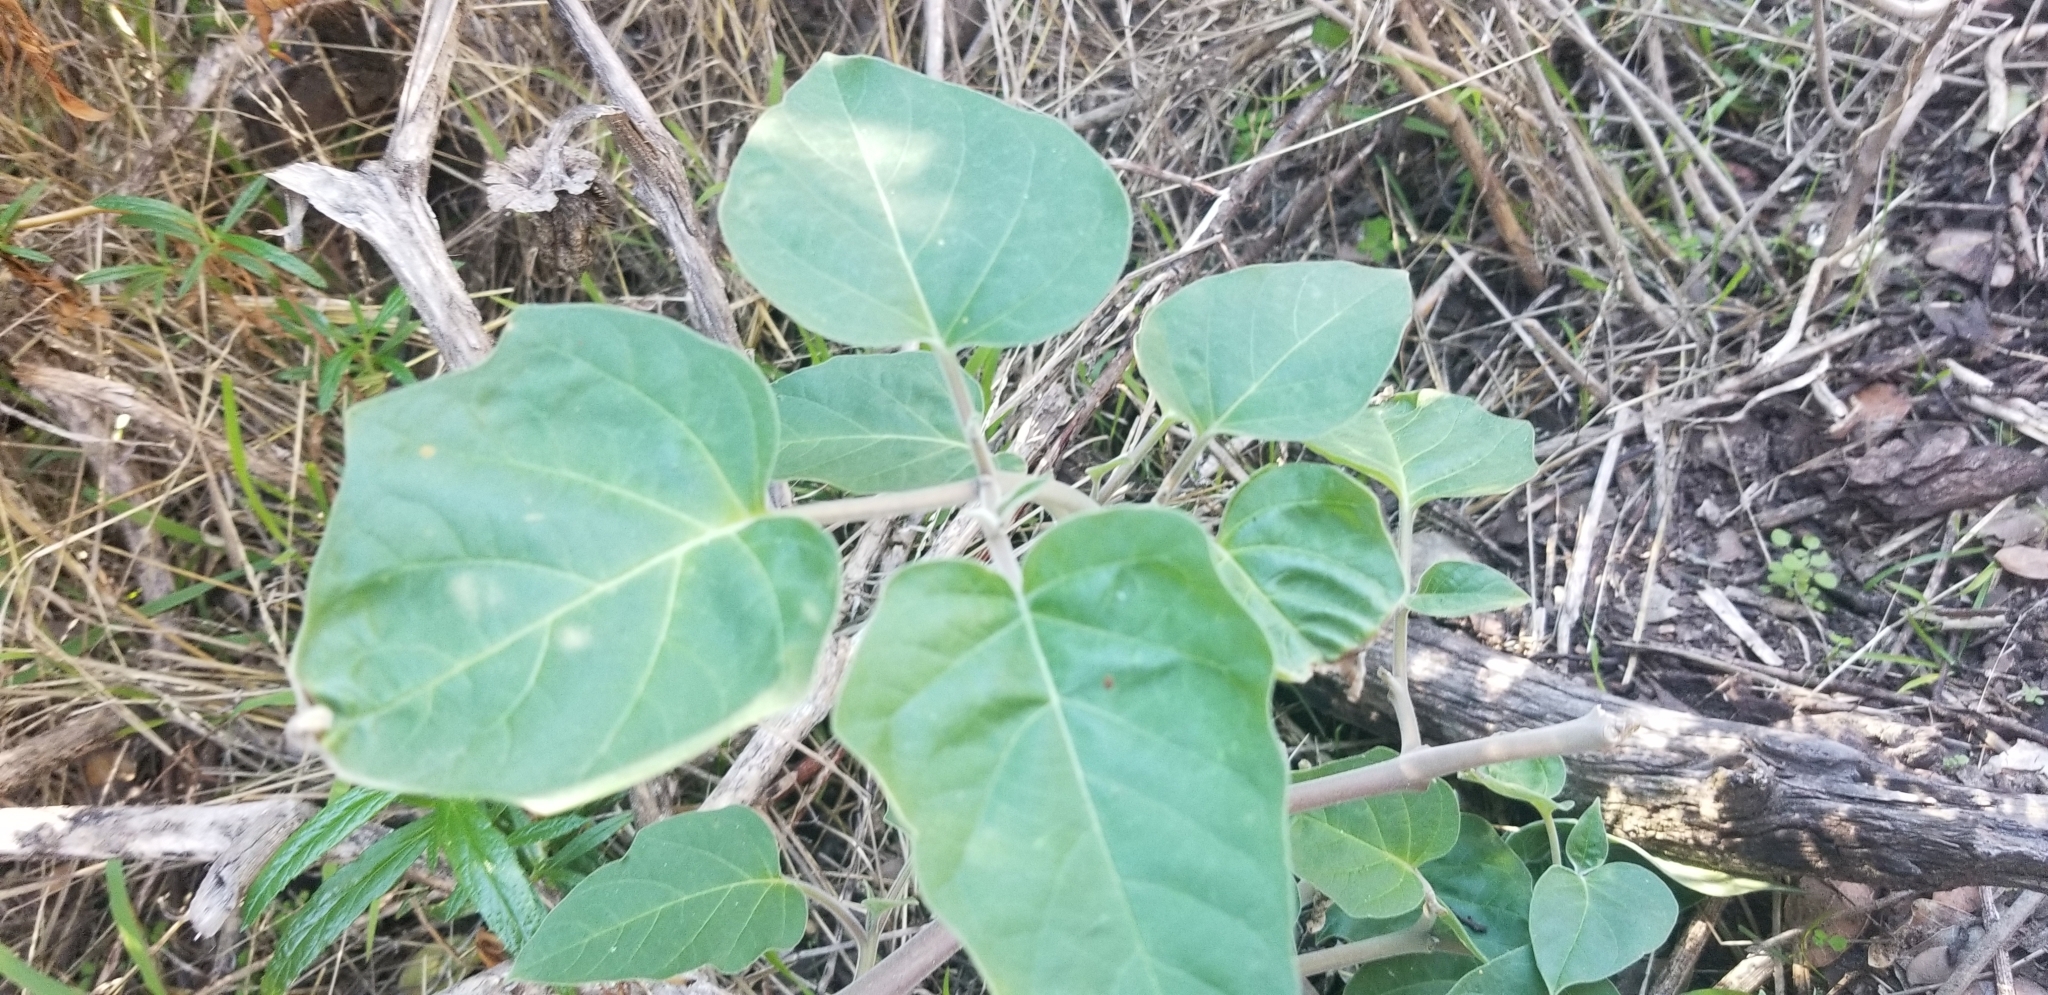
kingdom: Plantae
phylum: Tracheophyta
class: Magnoliopsida
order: Solanales
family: Solanaceae
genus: Datura
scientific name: Datura wrightii
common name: Sacred thorn-apple
